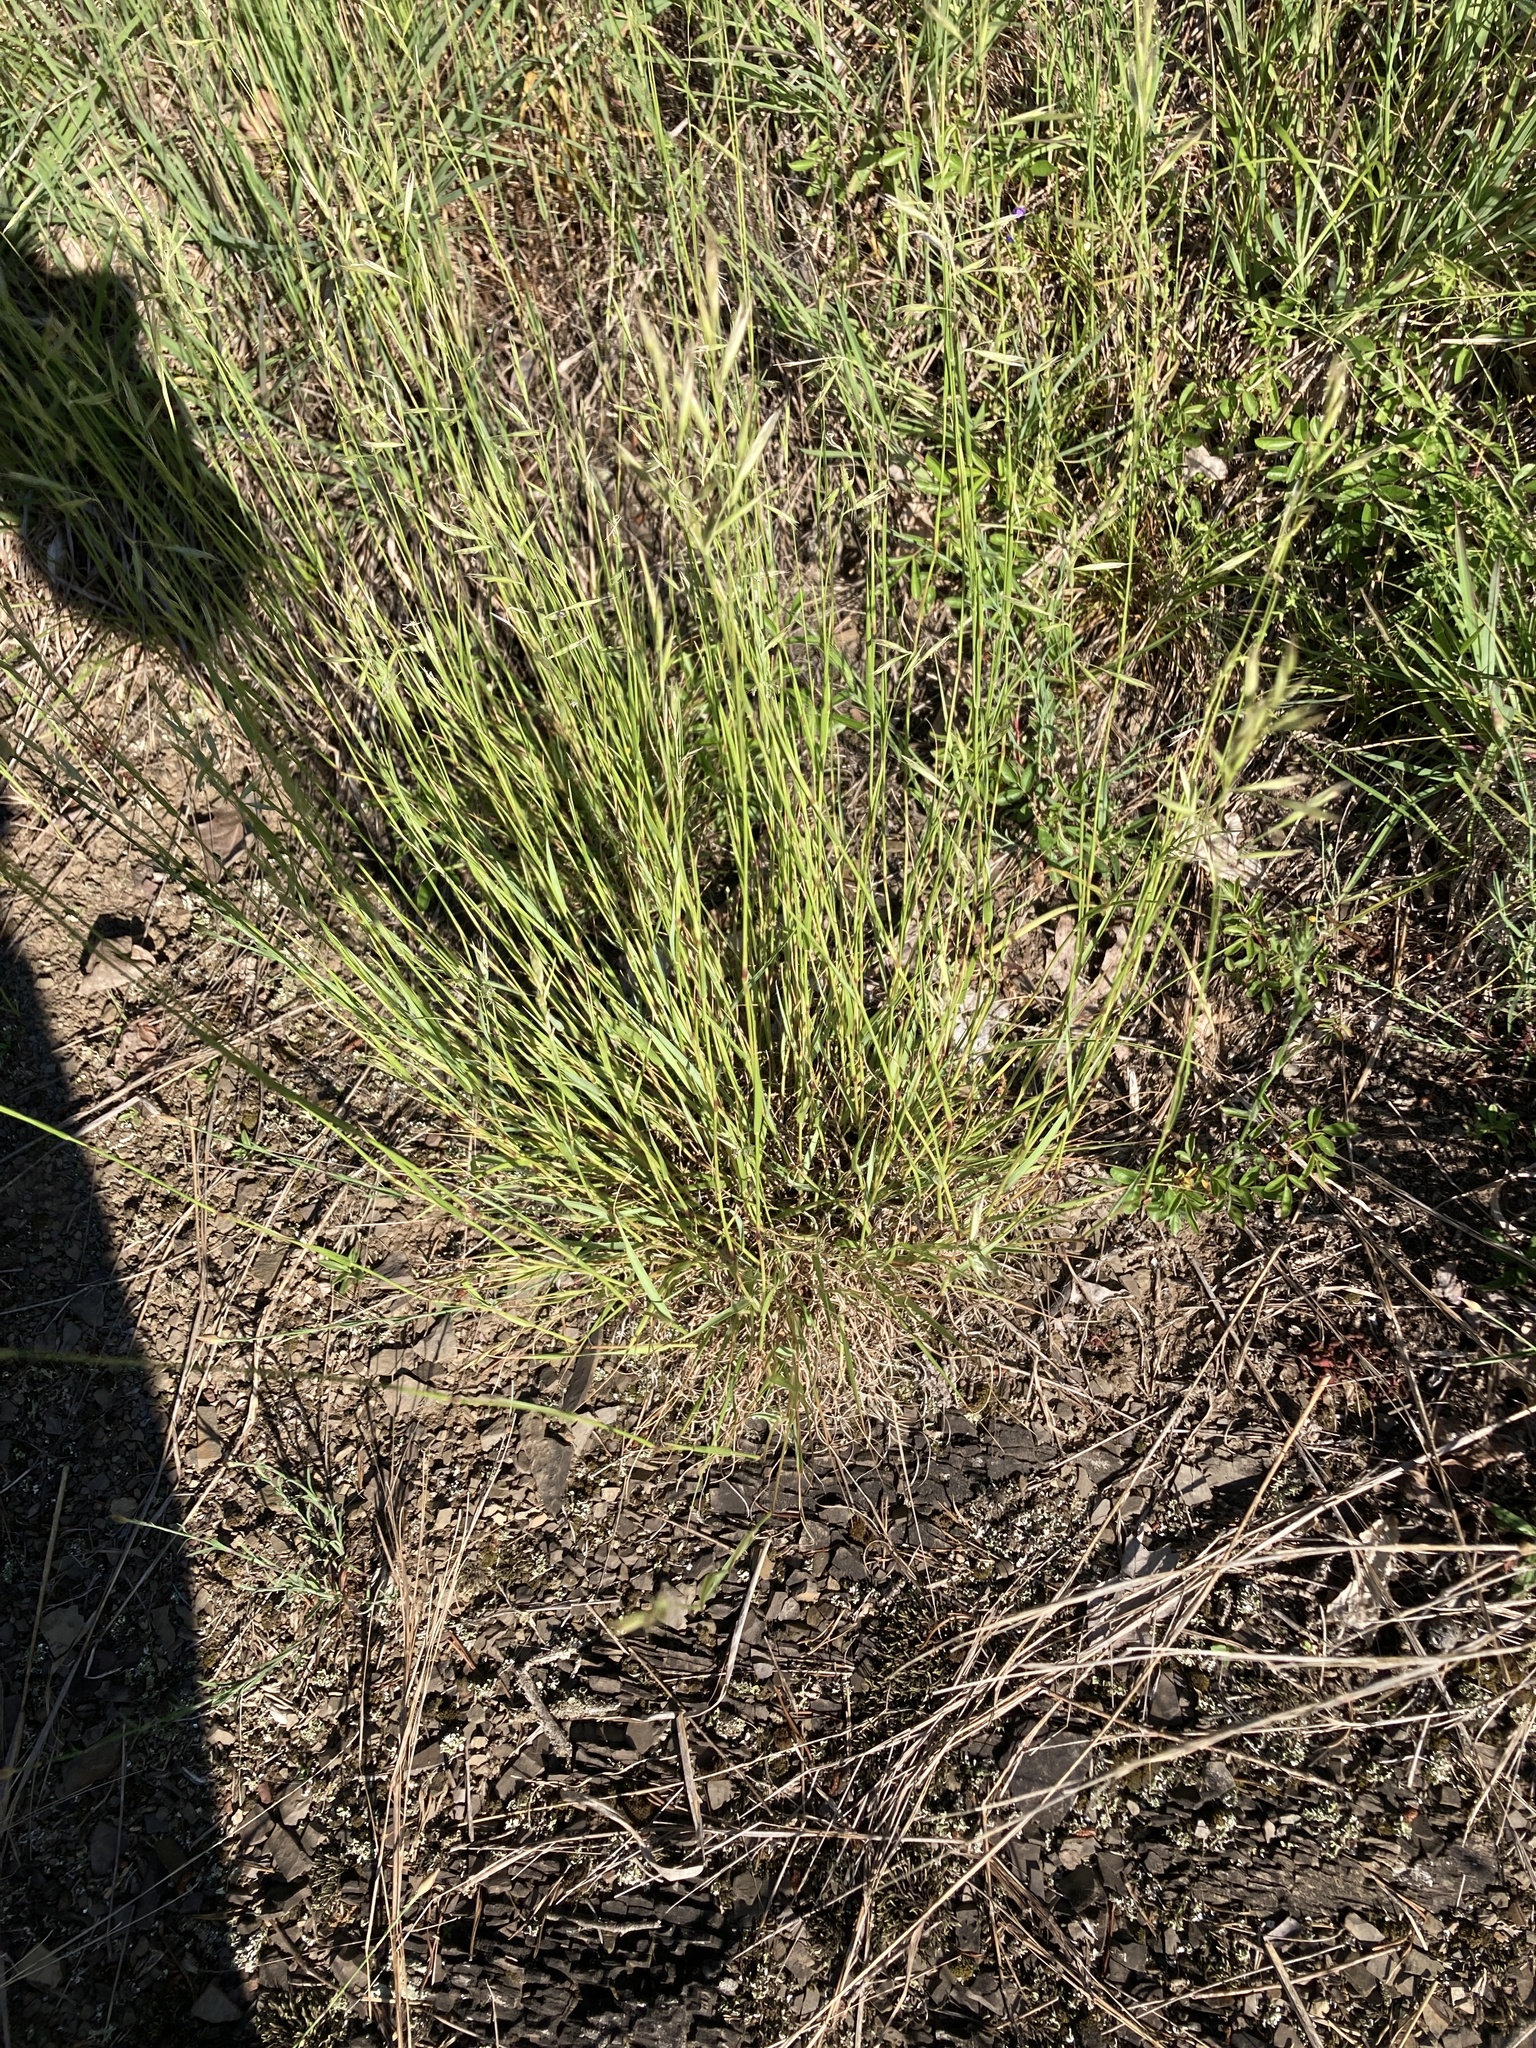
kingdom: Plantae
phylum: Tracheophyta
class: Liliopsida
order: Poales
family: Poaceae
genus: Danthonia
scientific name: Danthonia compressa
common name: Flat-stem oat grass
